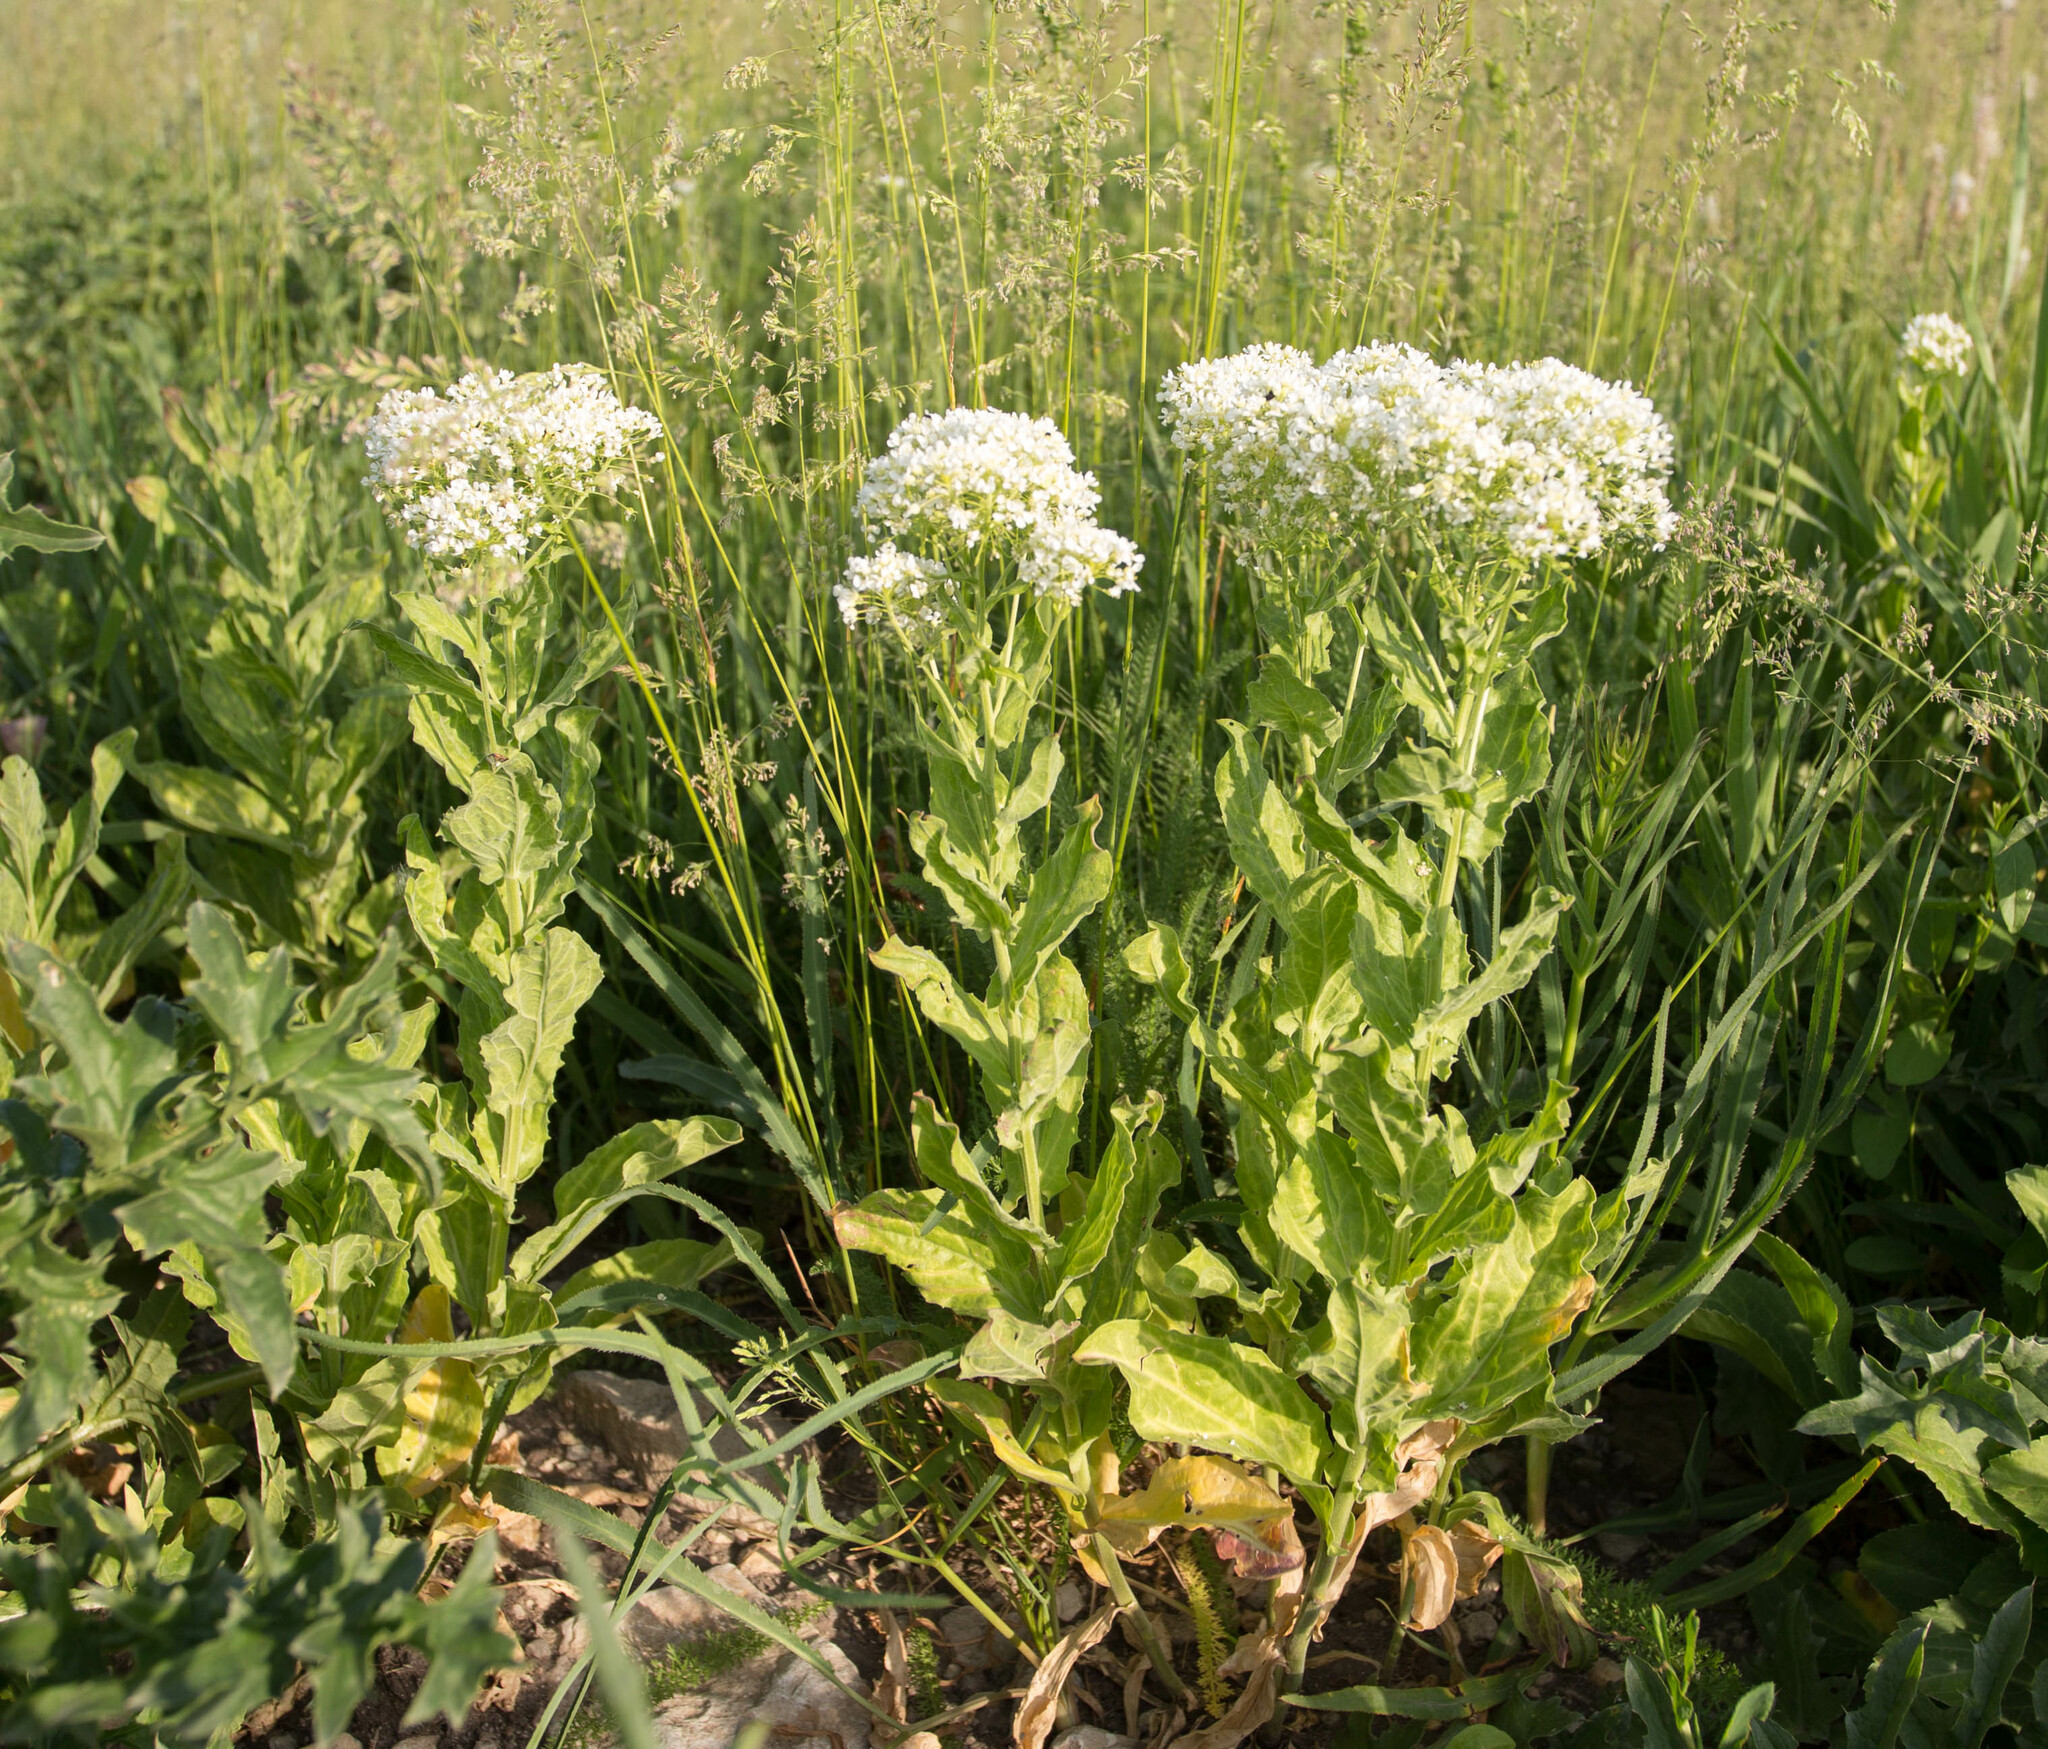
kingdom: Plantae
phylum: Tracheophyta
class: Magnoliopsida
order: Brassicales
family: Brassicaceae
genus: Lepidium
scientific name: Lepidium draba
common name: Hoary cress
